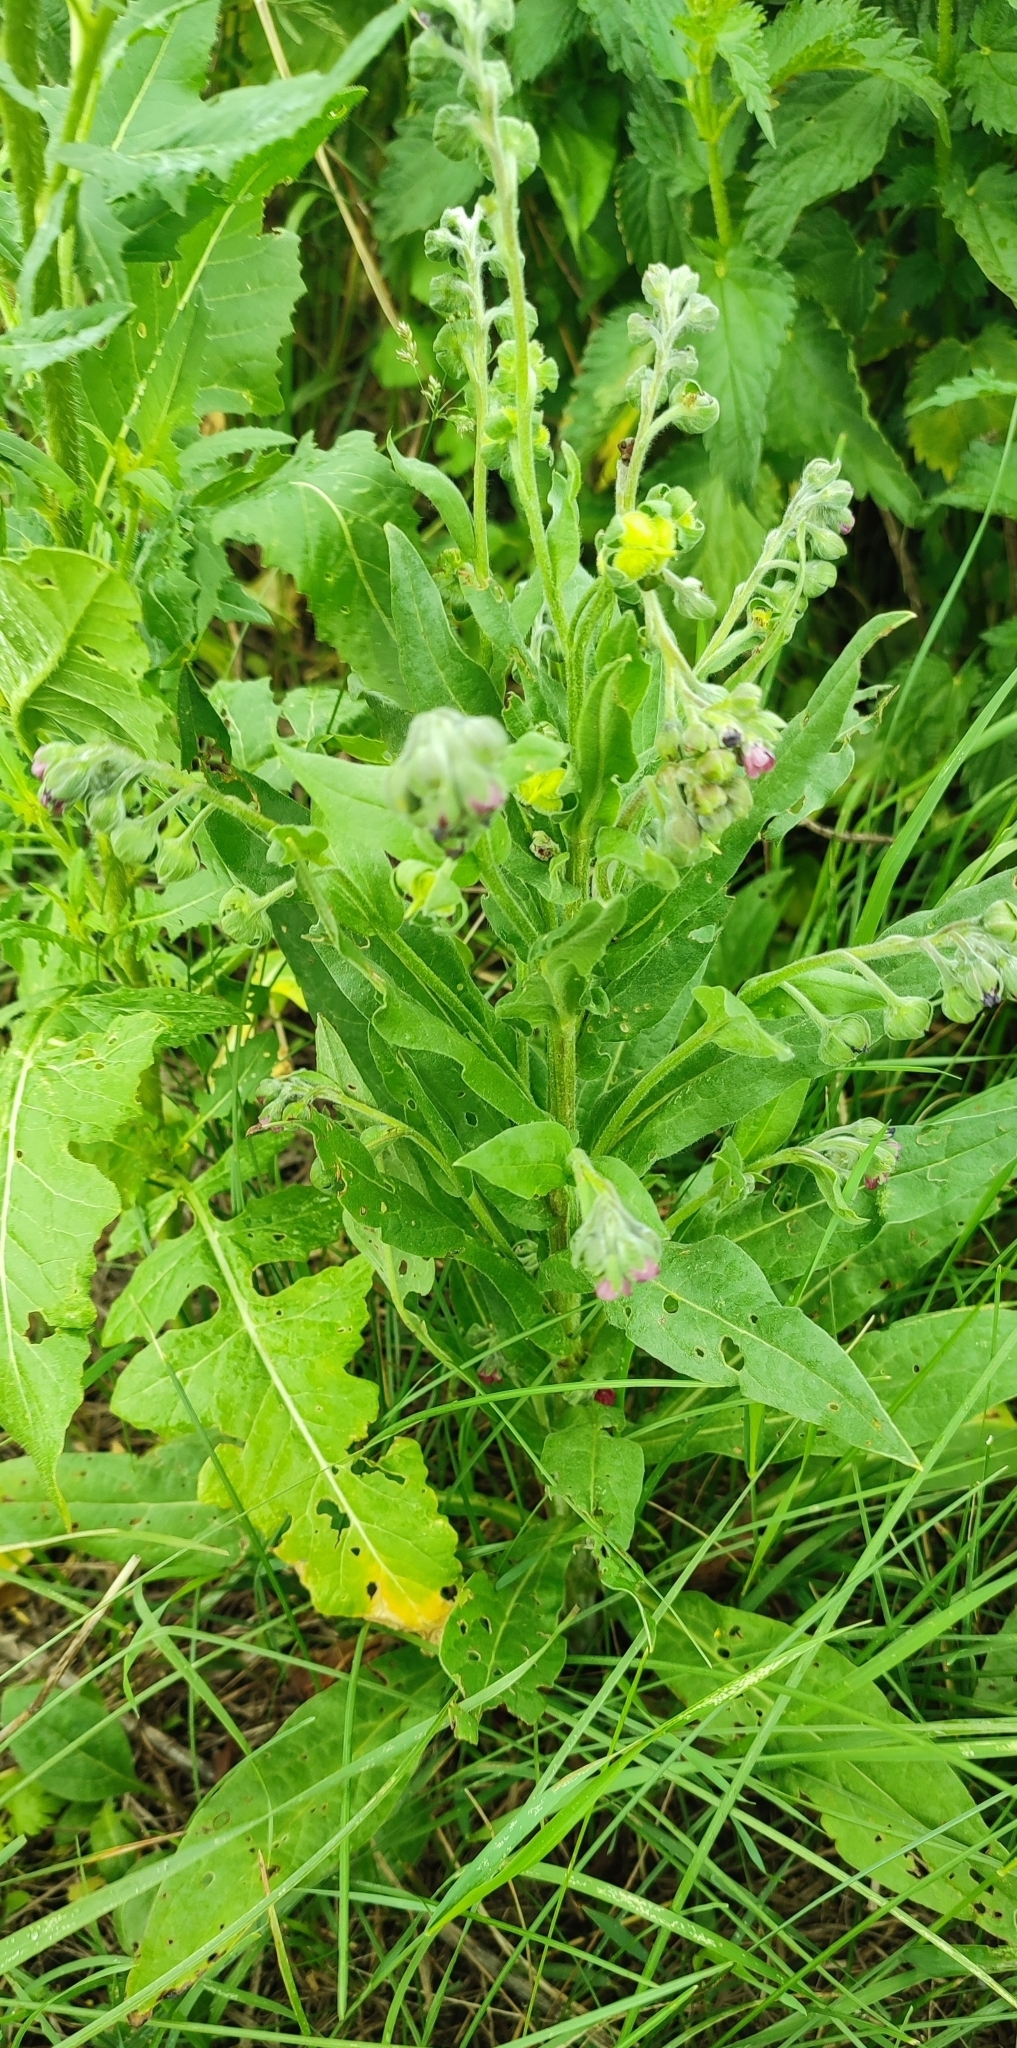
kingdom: Plantae
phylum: Tracheophyta
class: Magnoliopsida
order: Boraginales
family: Boraginaceae
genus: Cynoglossum
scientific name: Cynoglossum officinale
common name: Hound's-tongue
